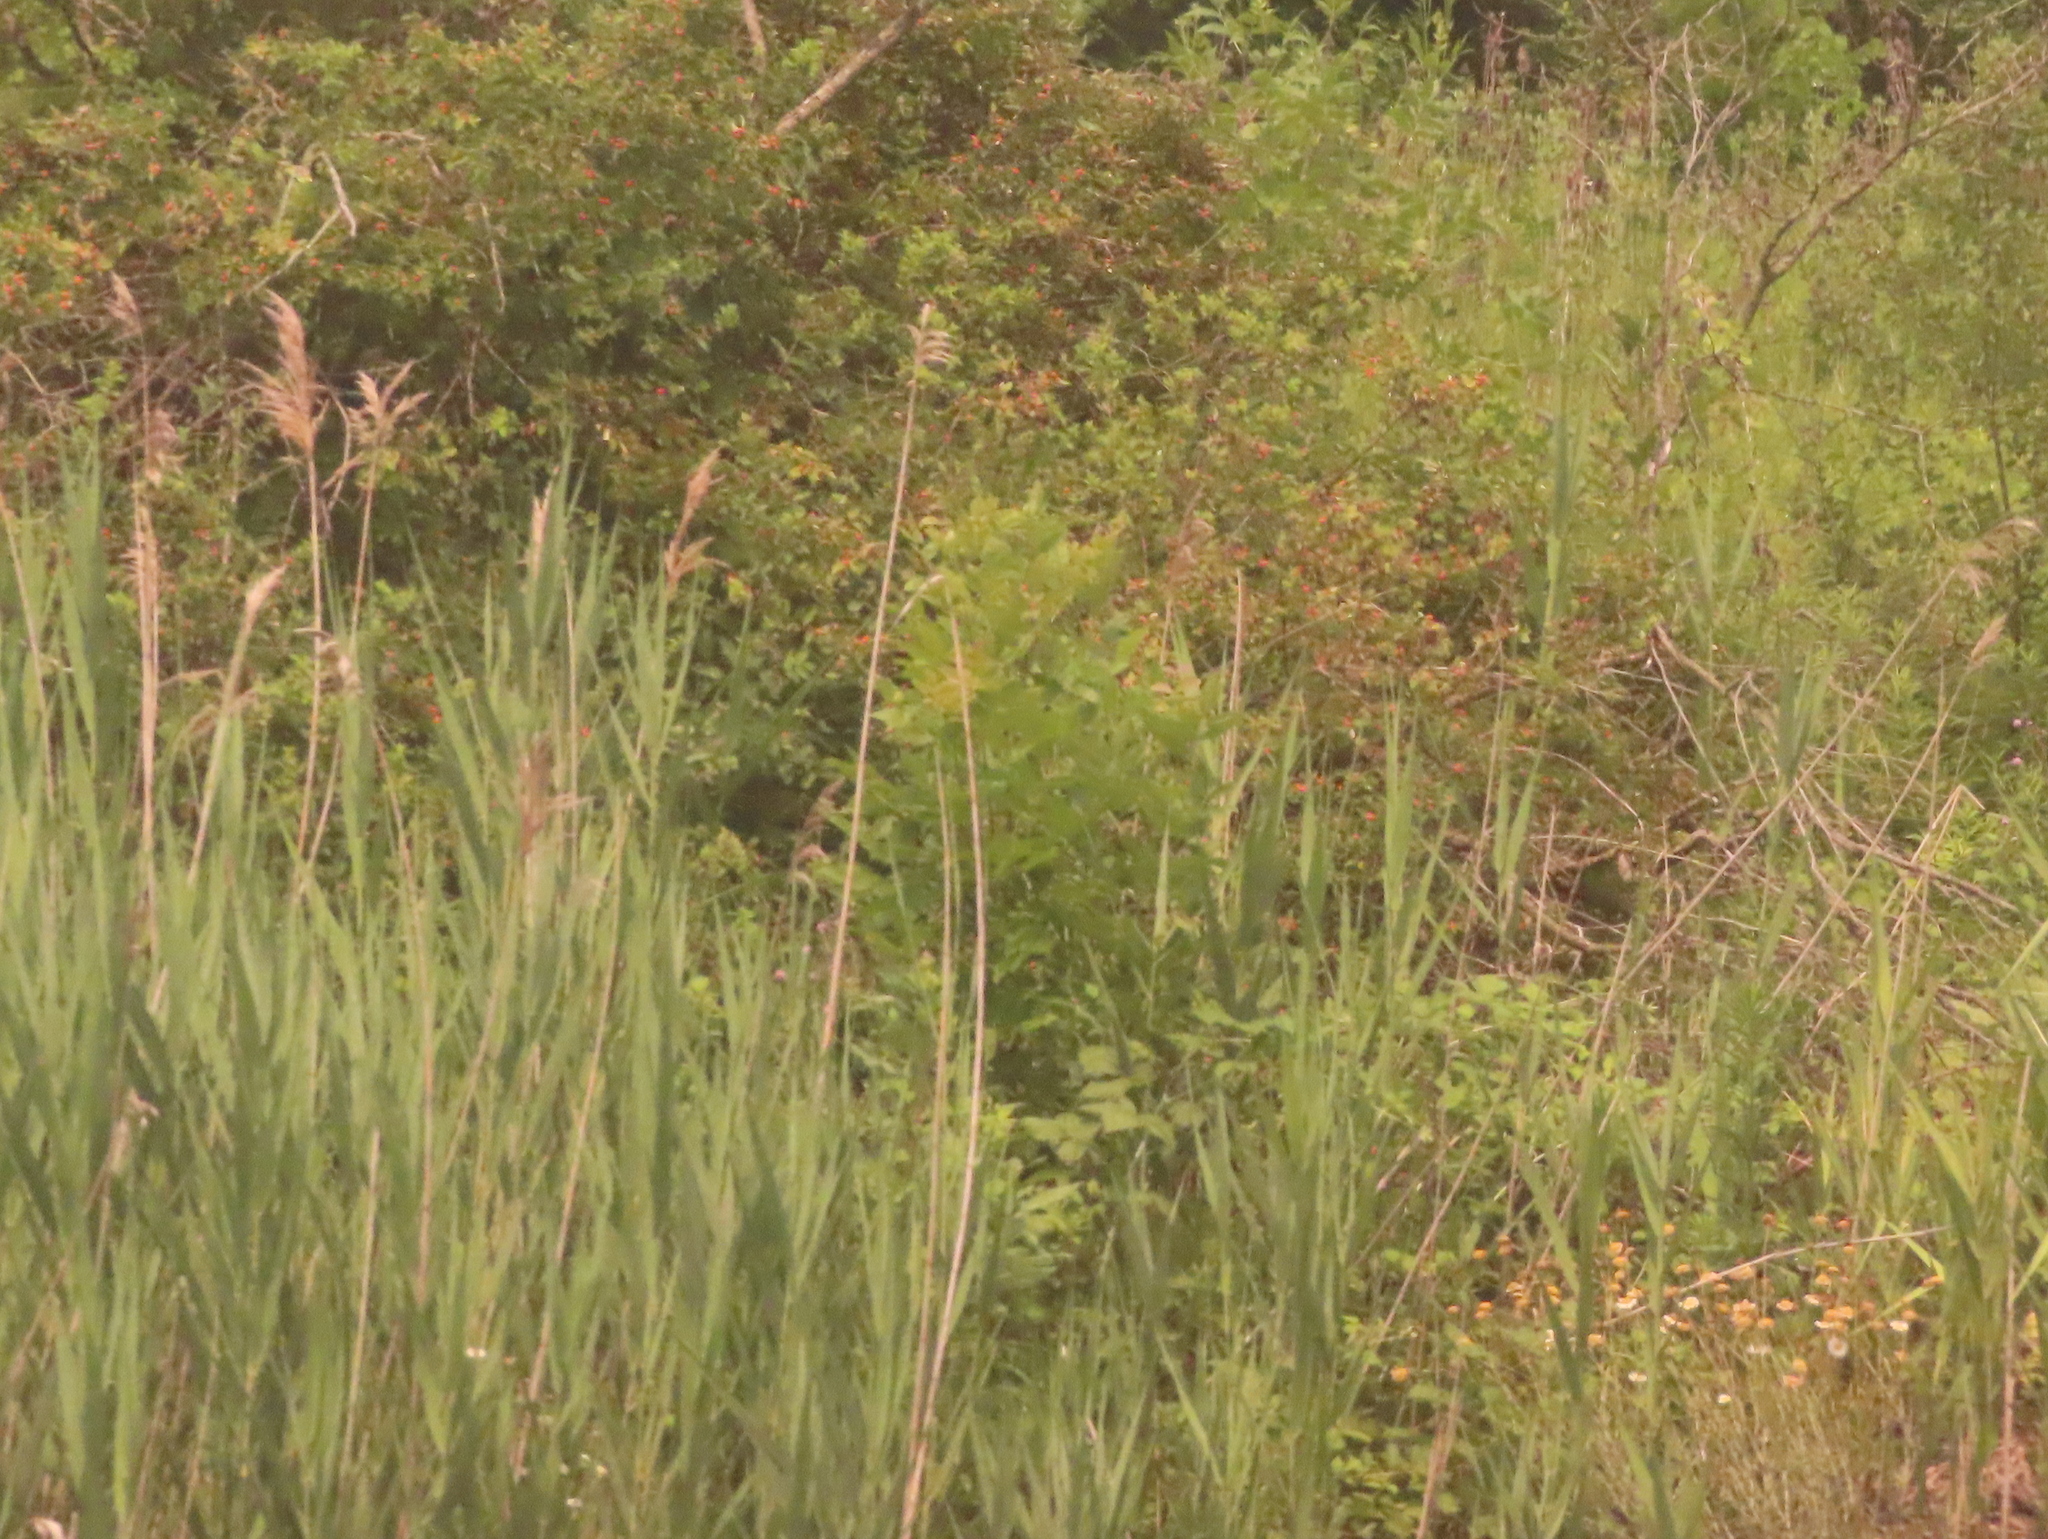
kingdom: Plantae
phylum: Tracheophyta
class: Liliopsida
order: Poales
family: Poaceae
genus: Phragmites
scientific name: Phragmites australis
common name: Common reed
